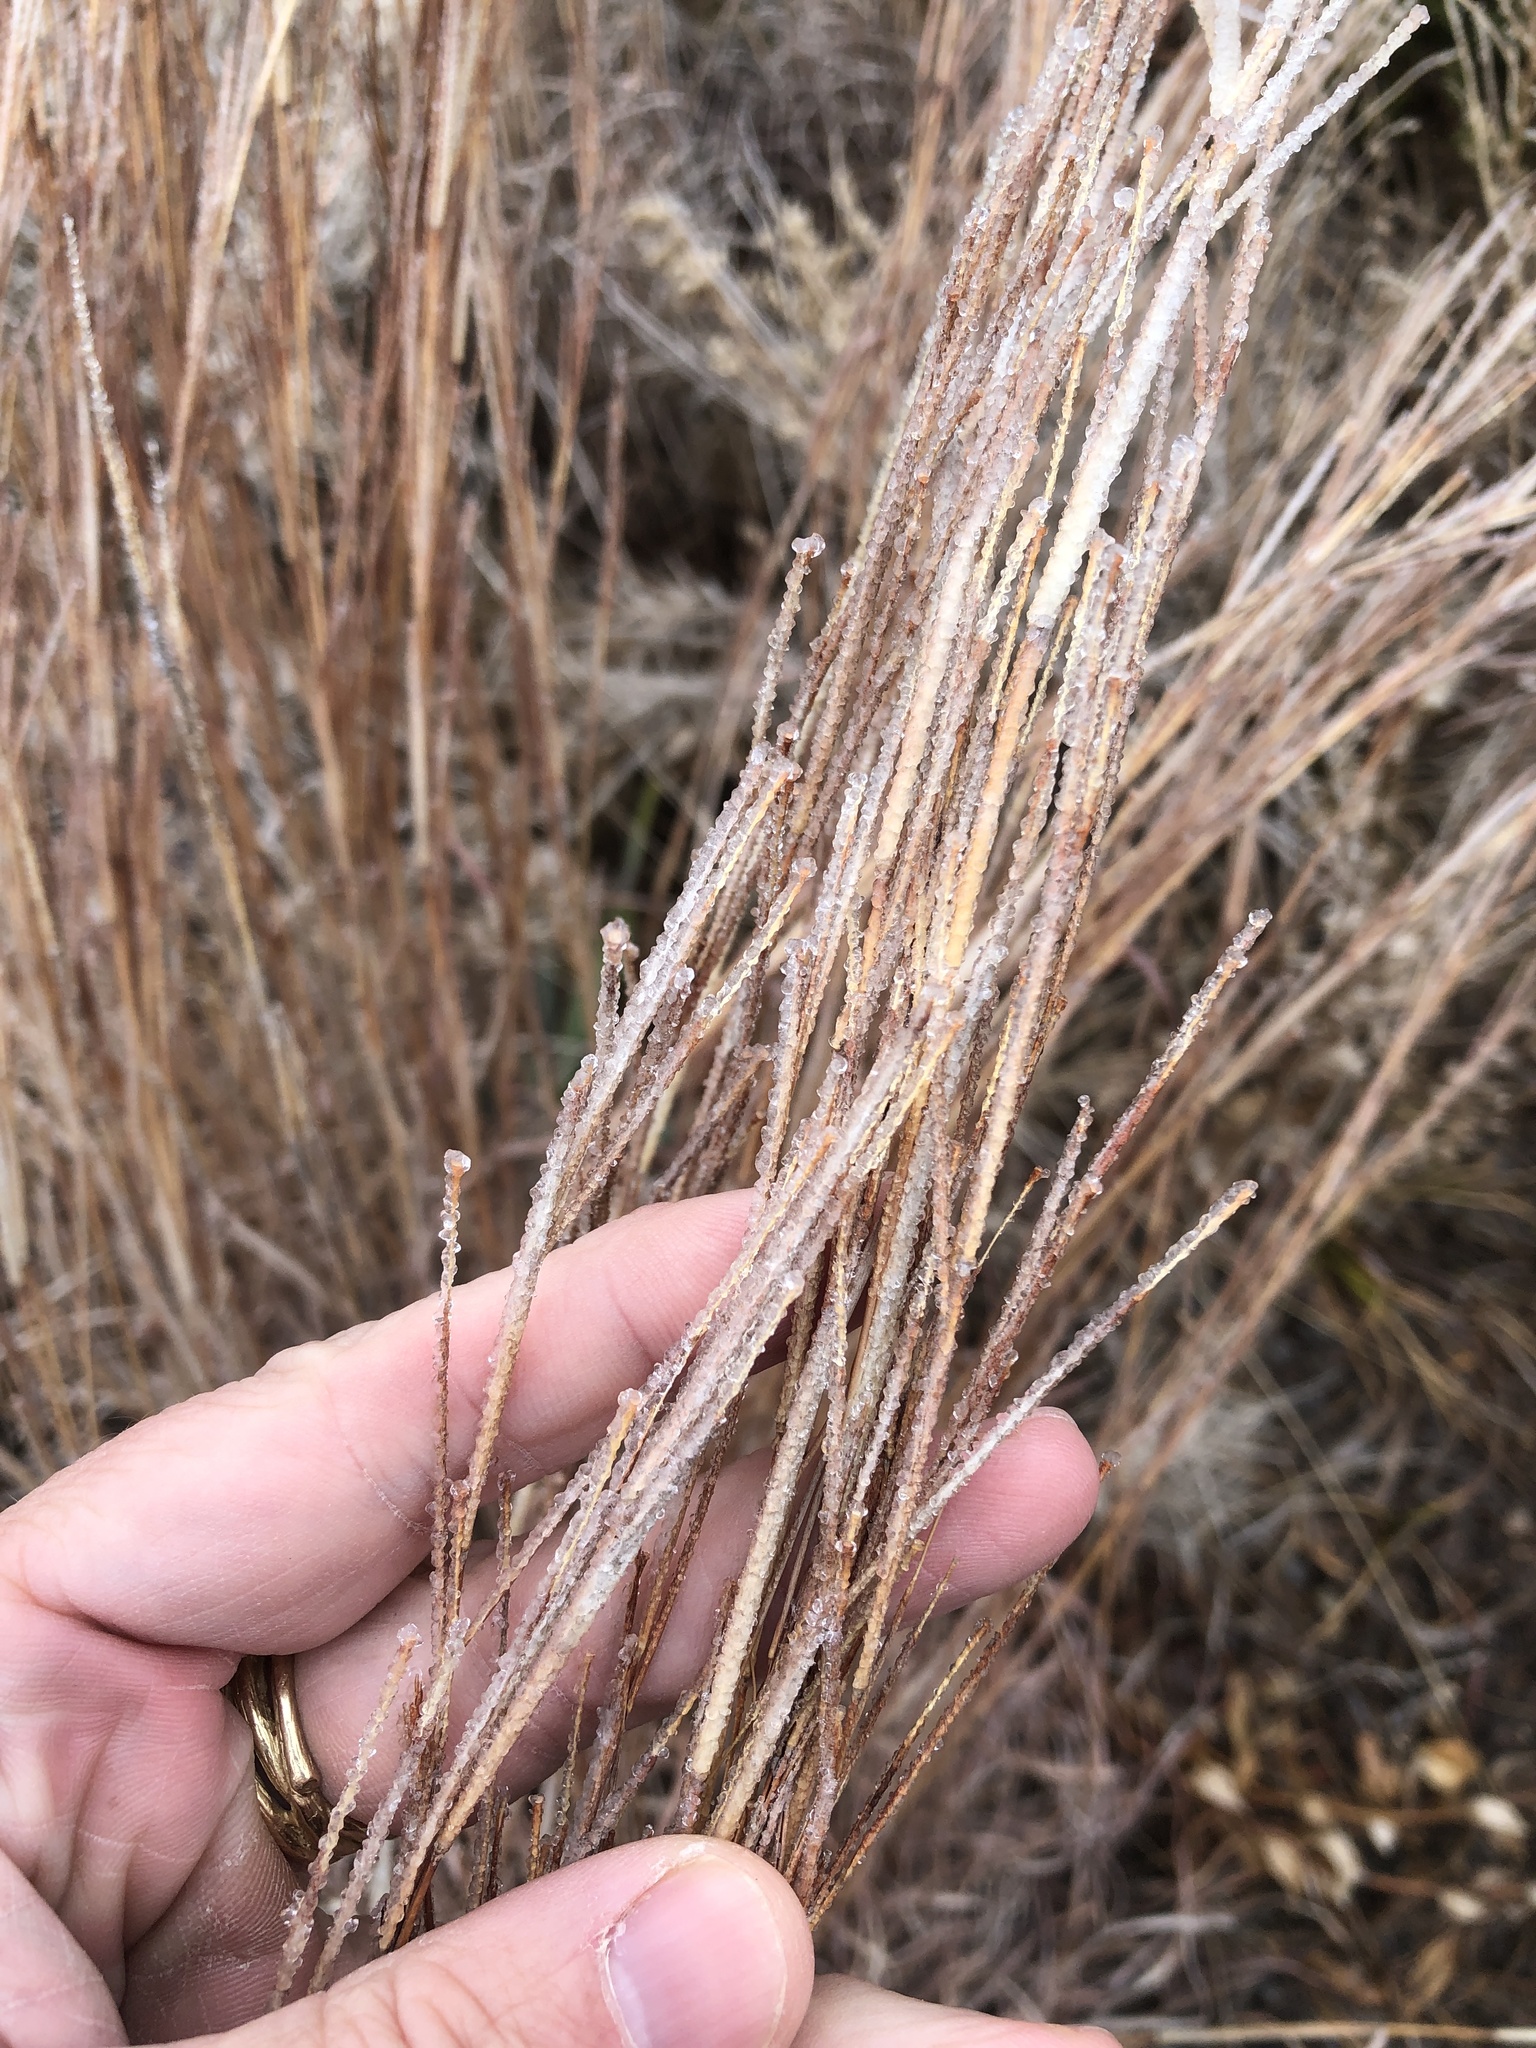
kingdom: Plantae
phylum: Tracheophyta
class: Liliopsida
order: Poales
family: Poaceae
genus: Schizachyrium
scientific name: Schizachyrium scoparium
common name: Little bluestem
